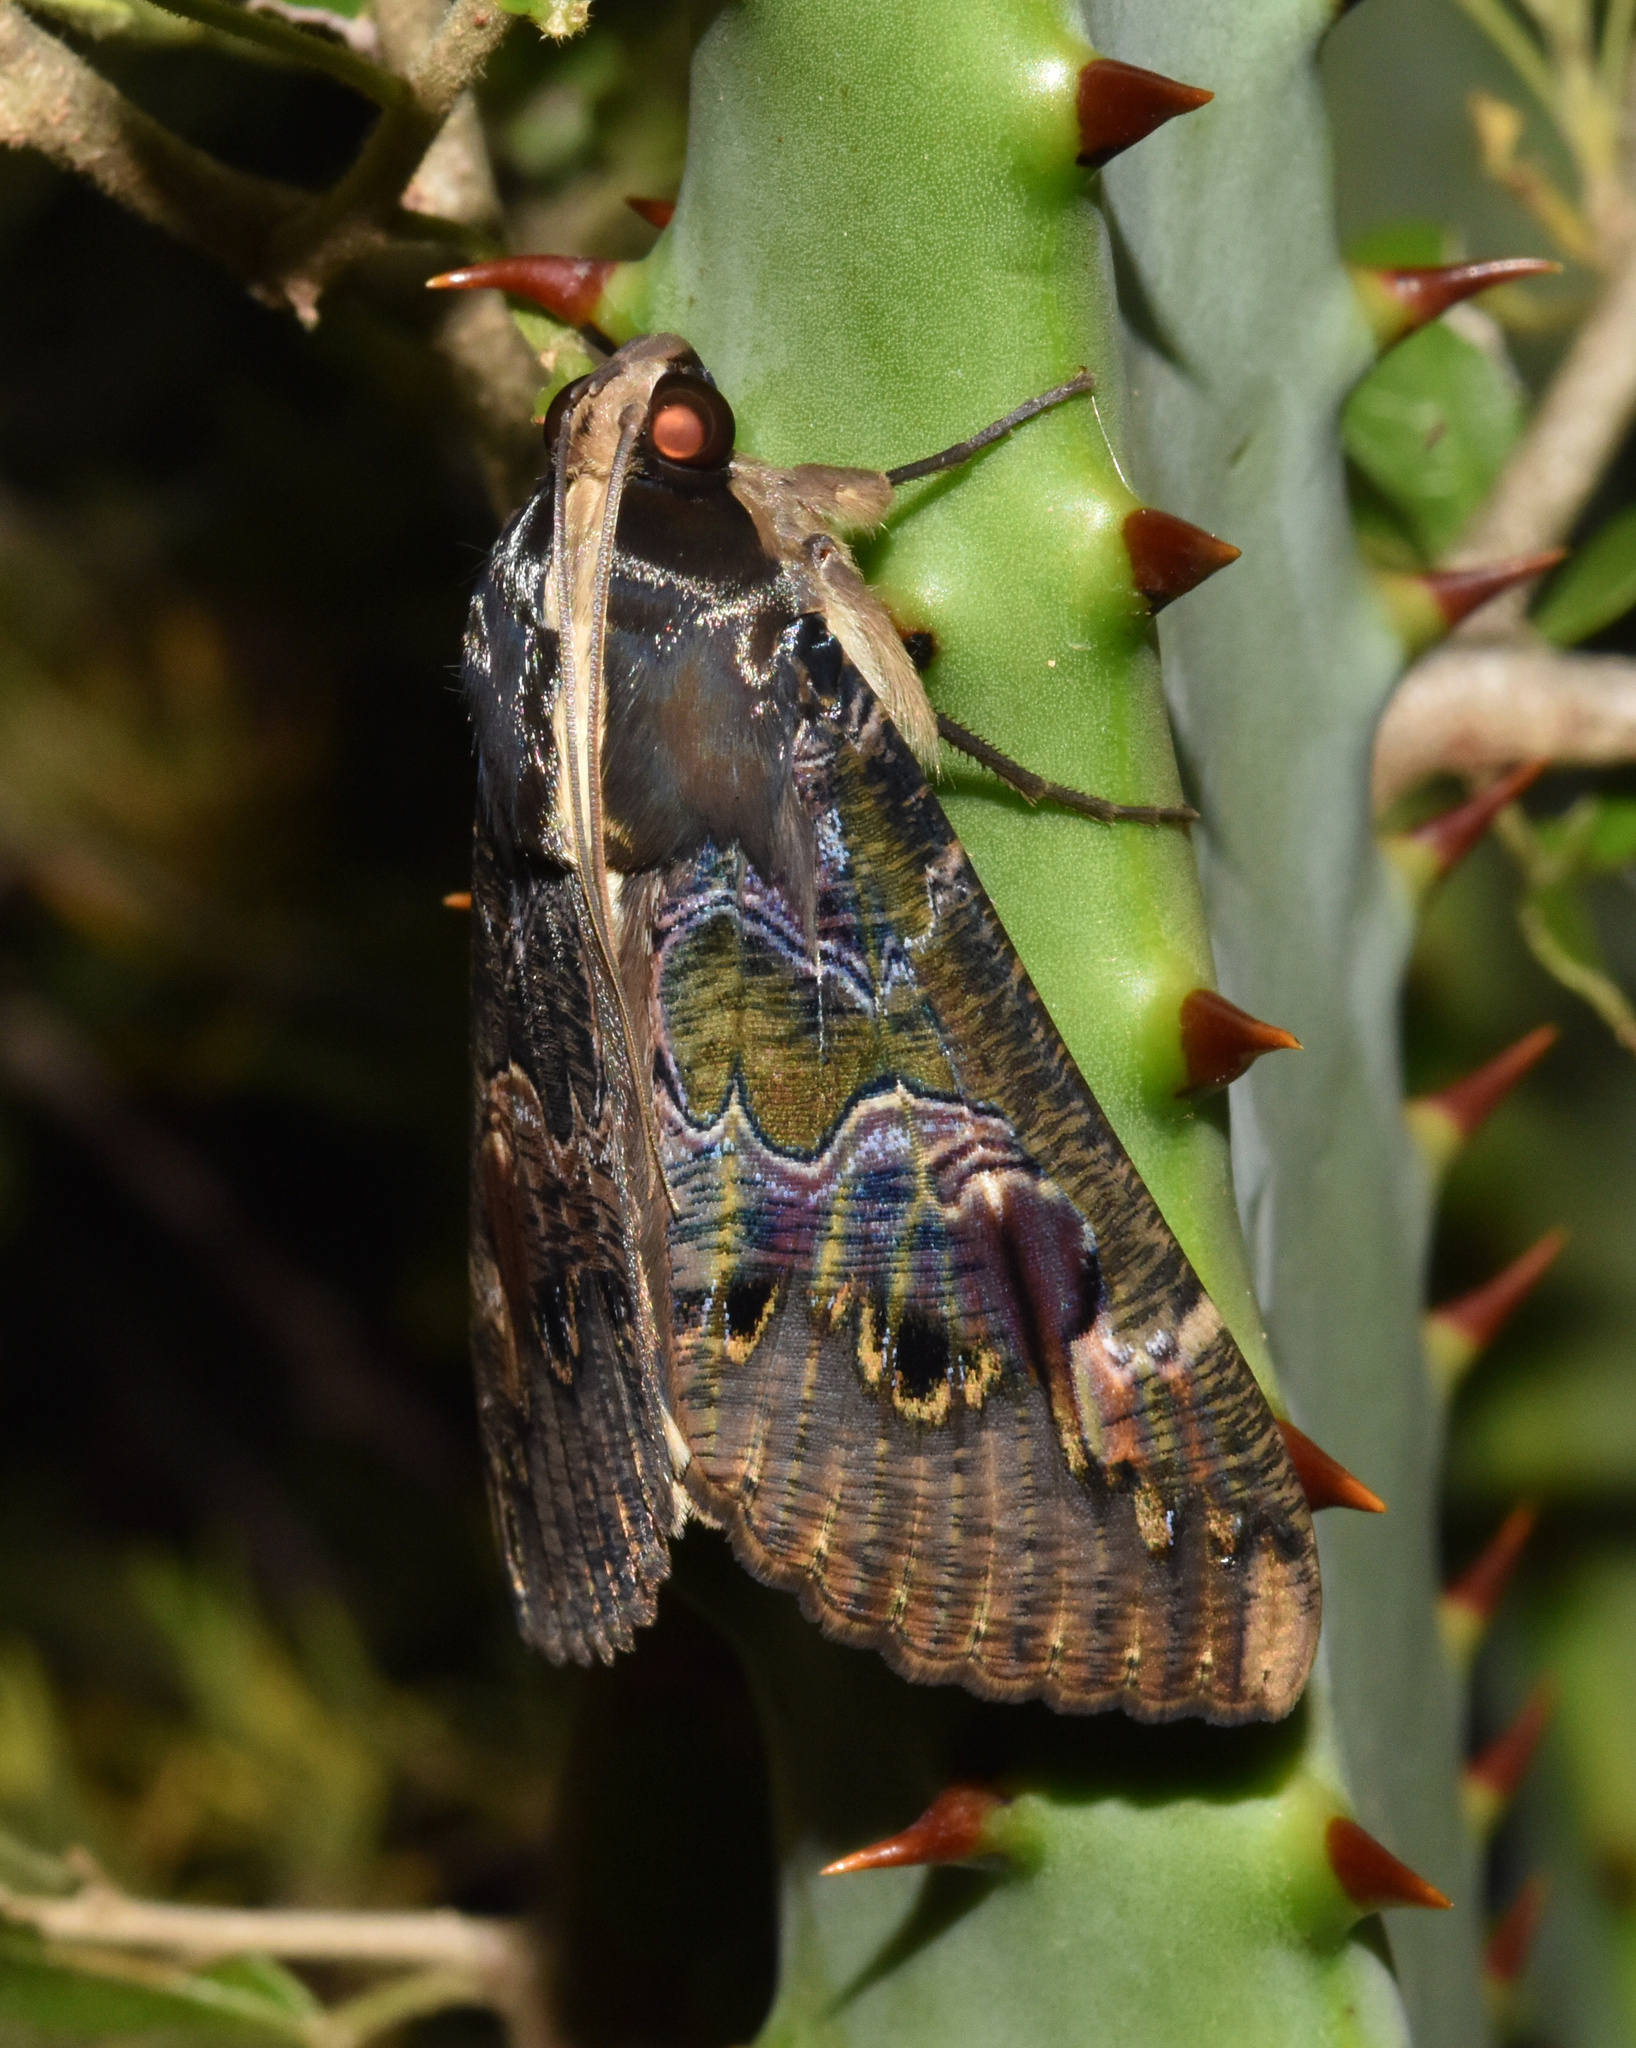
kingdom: Animalia
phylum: Arthropoda
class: Insecta
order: Lepidoptera
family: Erebidae
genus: Sphingomorpha
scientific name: Sphingomorpha chlorea
